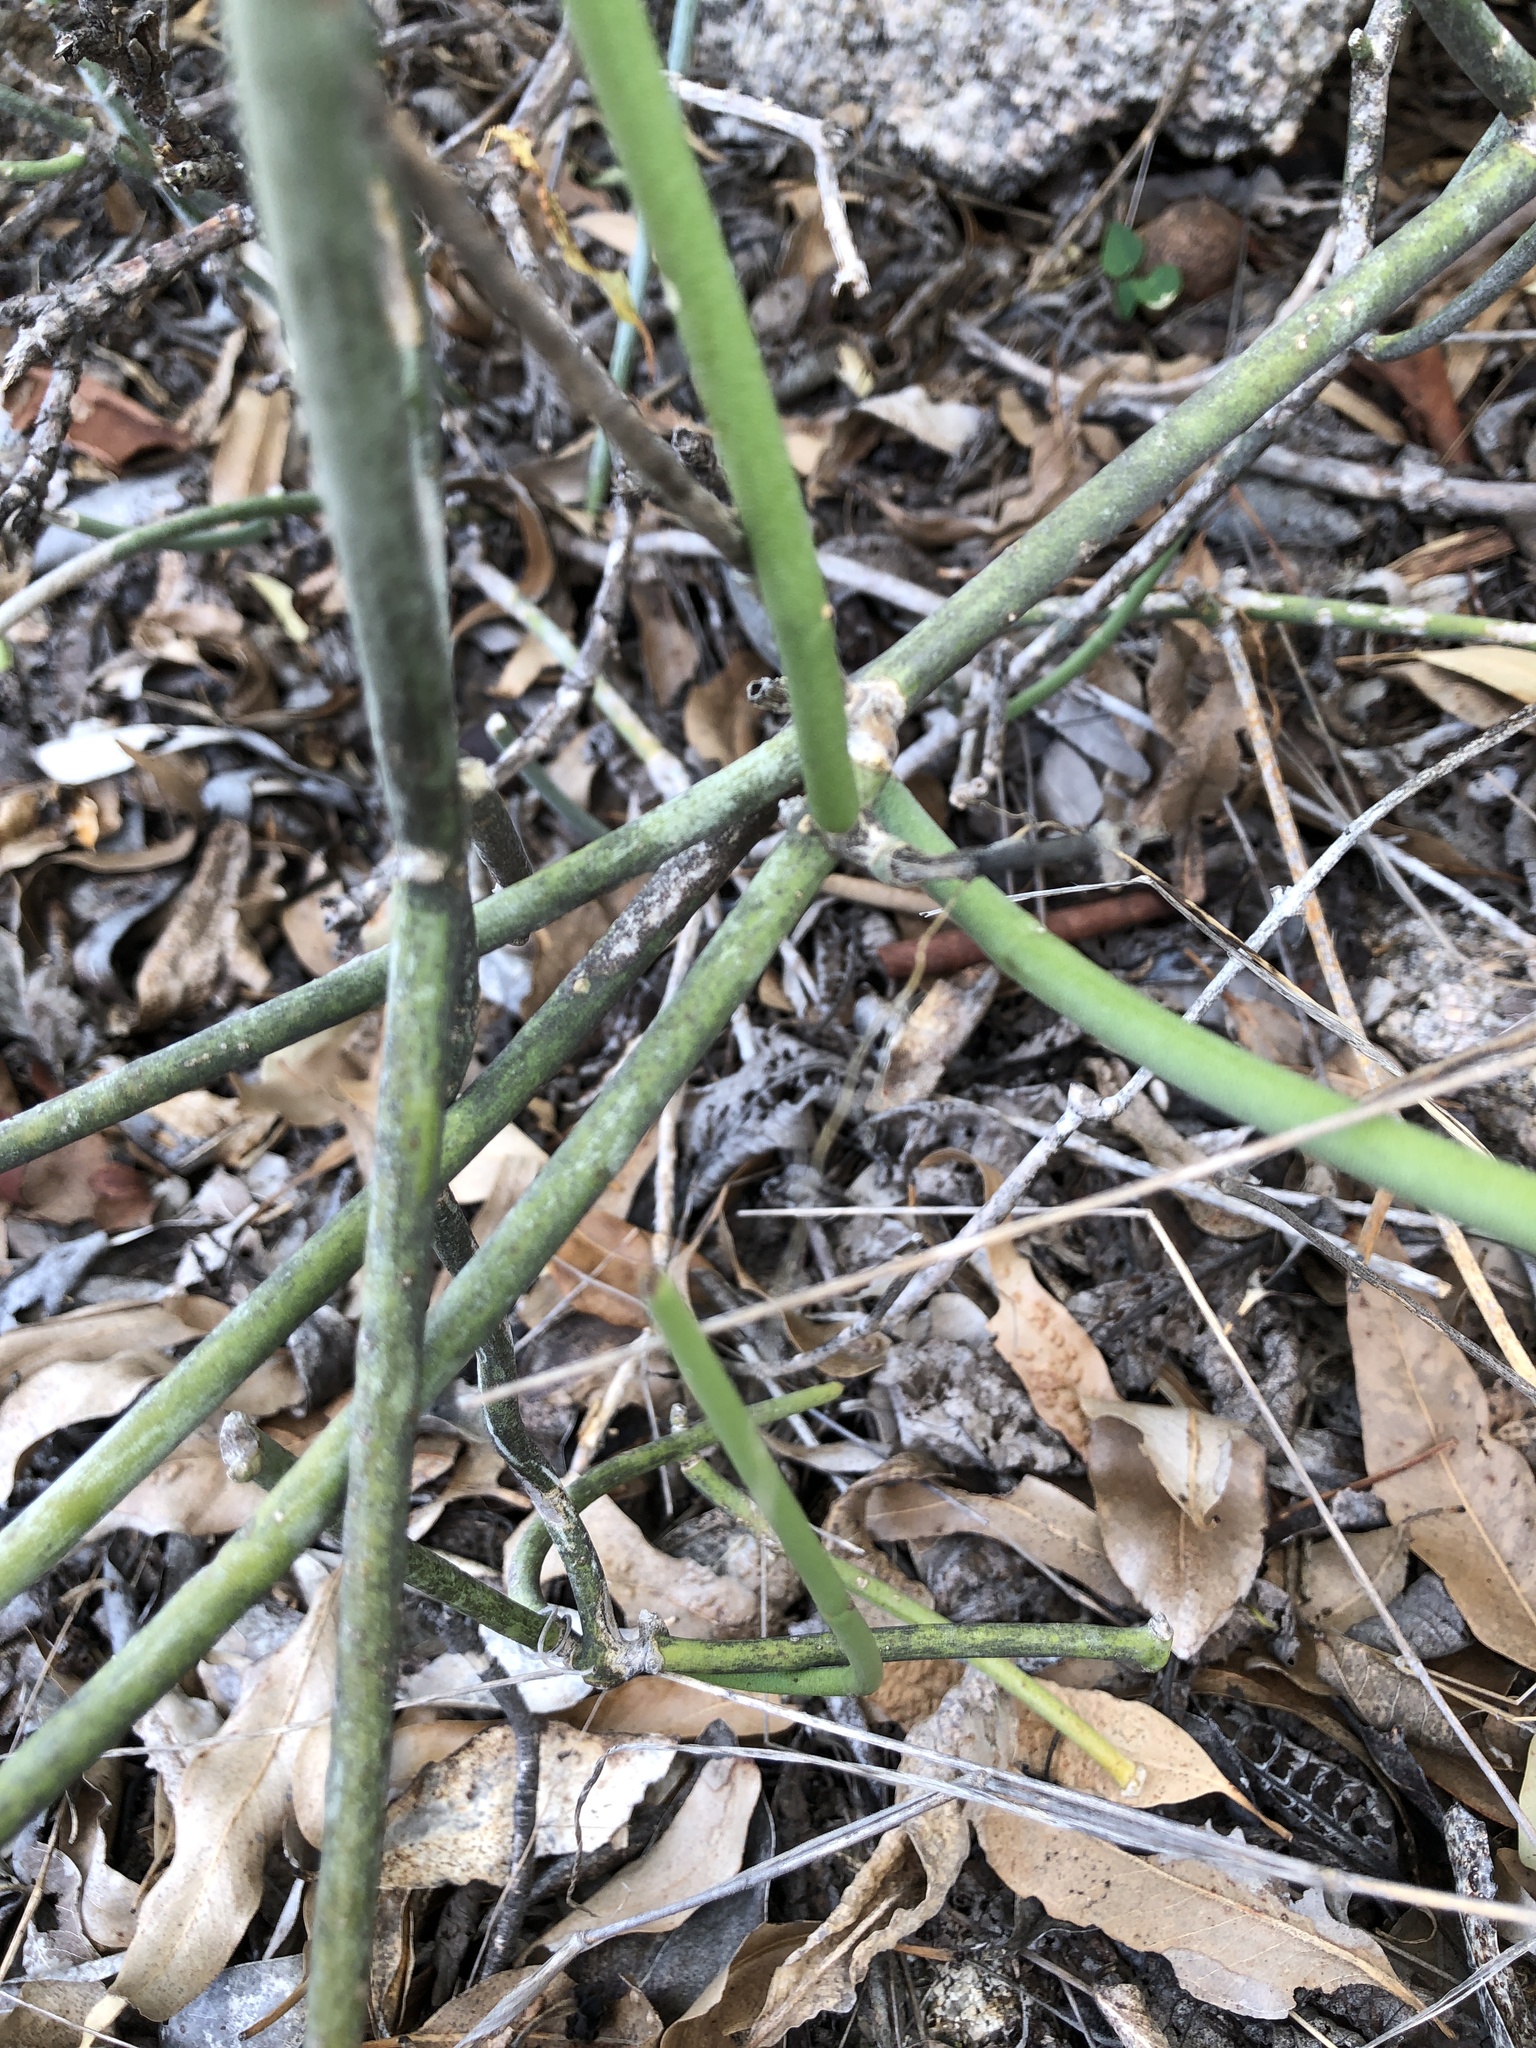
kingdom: Plantae
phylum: Tracheophyta
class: Magnoliopsida
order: Gentianales
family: Apocynaceae
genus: Cynanchum
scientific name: Cynanchum viminale
